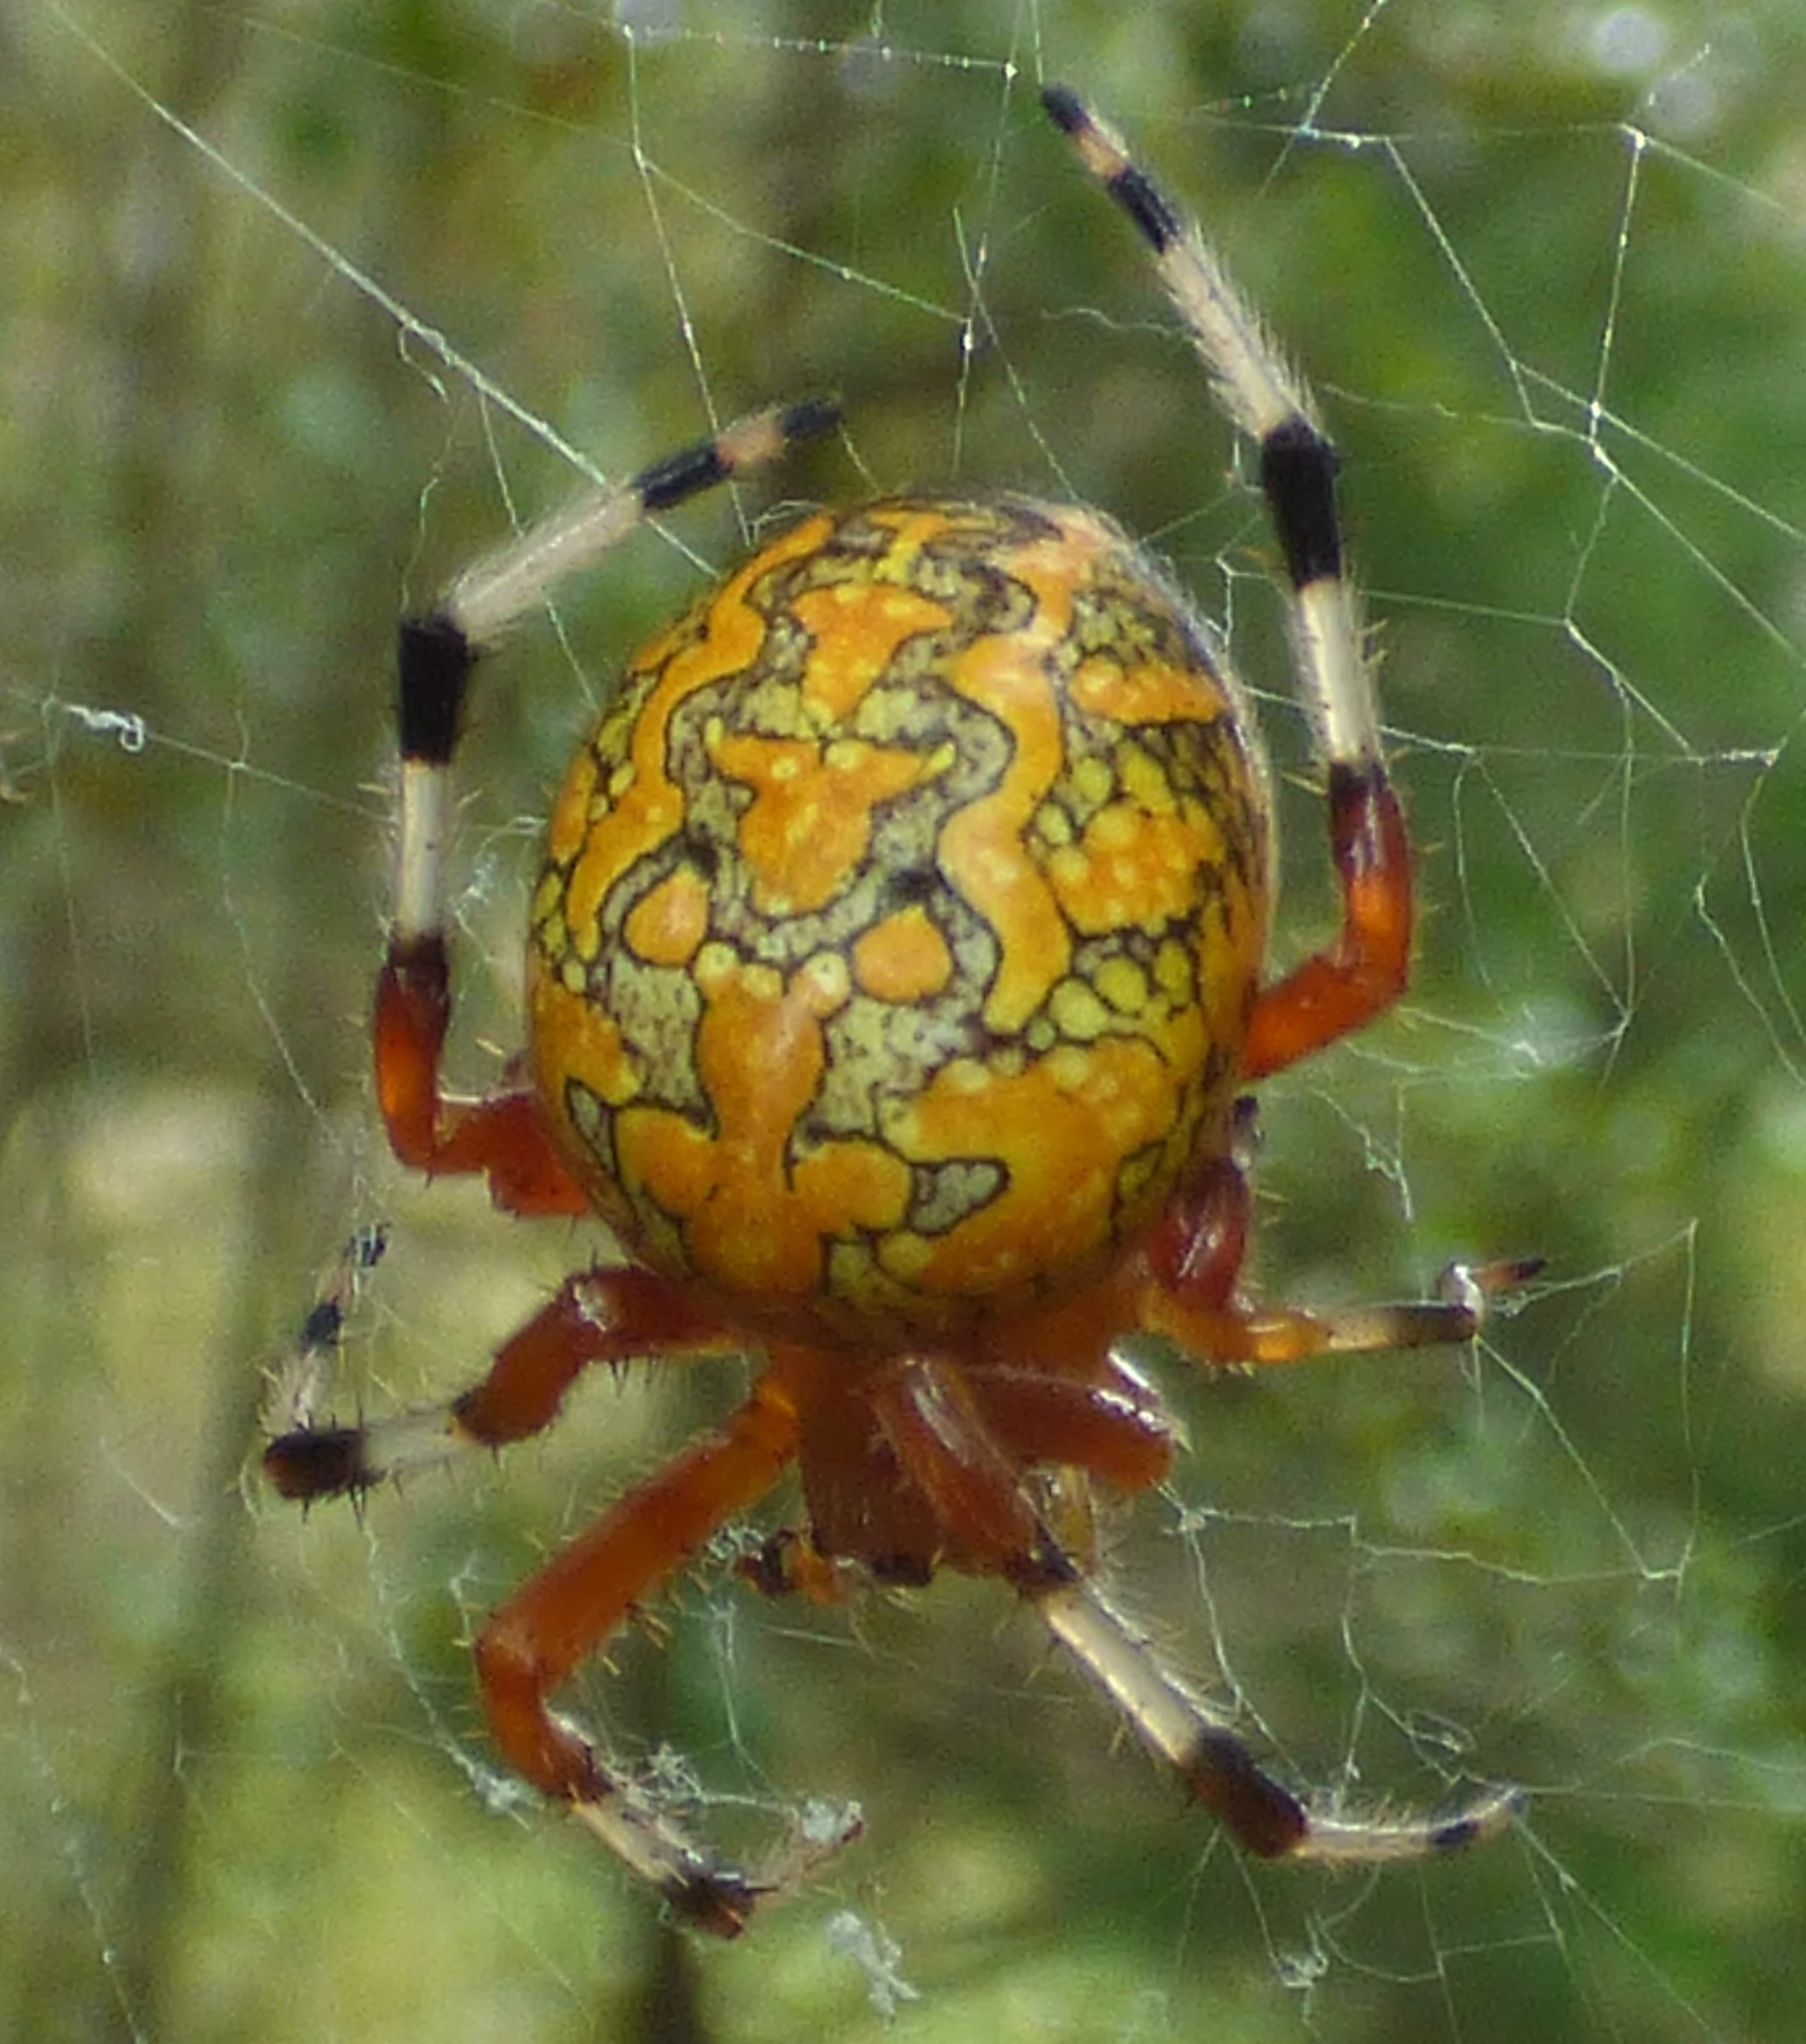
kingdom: Animalia
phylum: Arthropoda
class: Arachnida
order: Araneae
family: Araneidae
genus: Araneus
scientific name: Araneus marmoreus
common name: Marbled orbweaver
